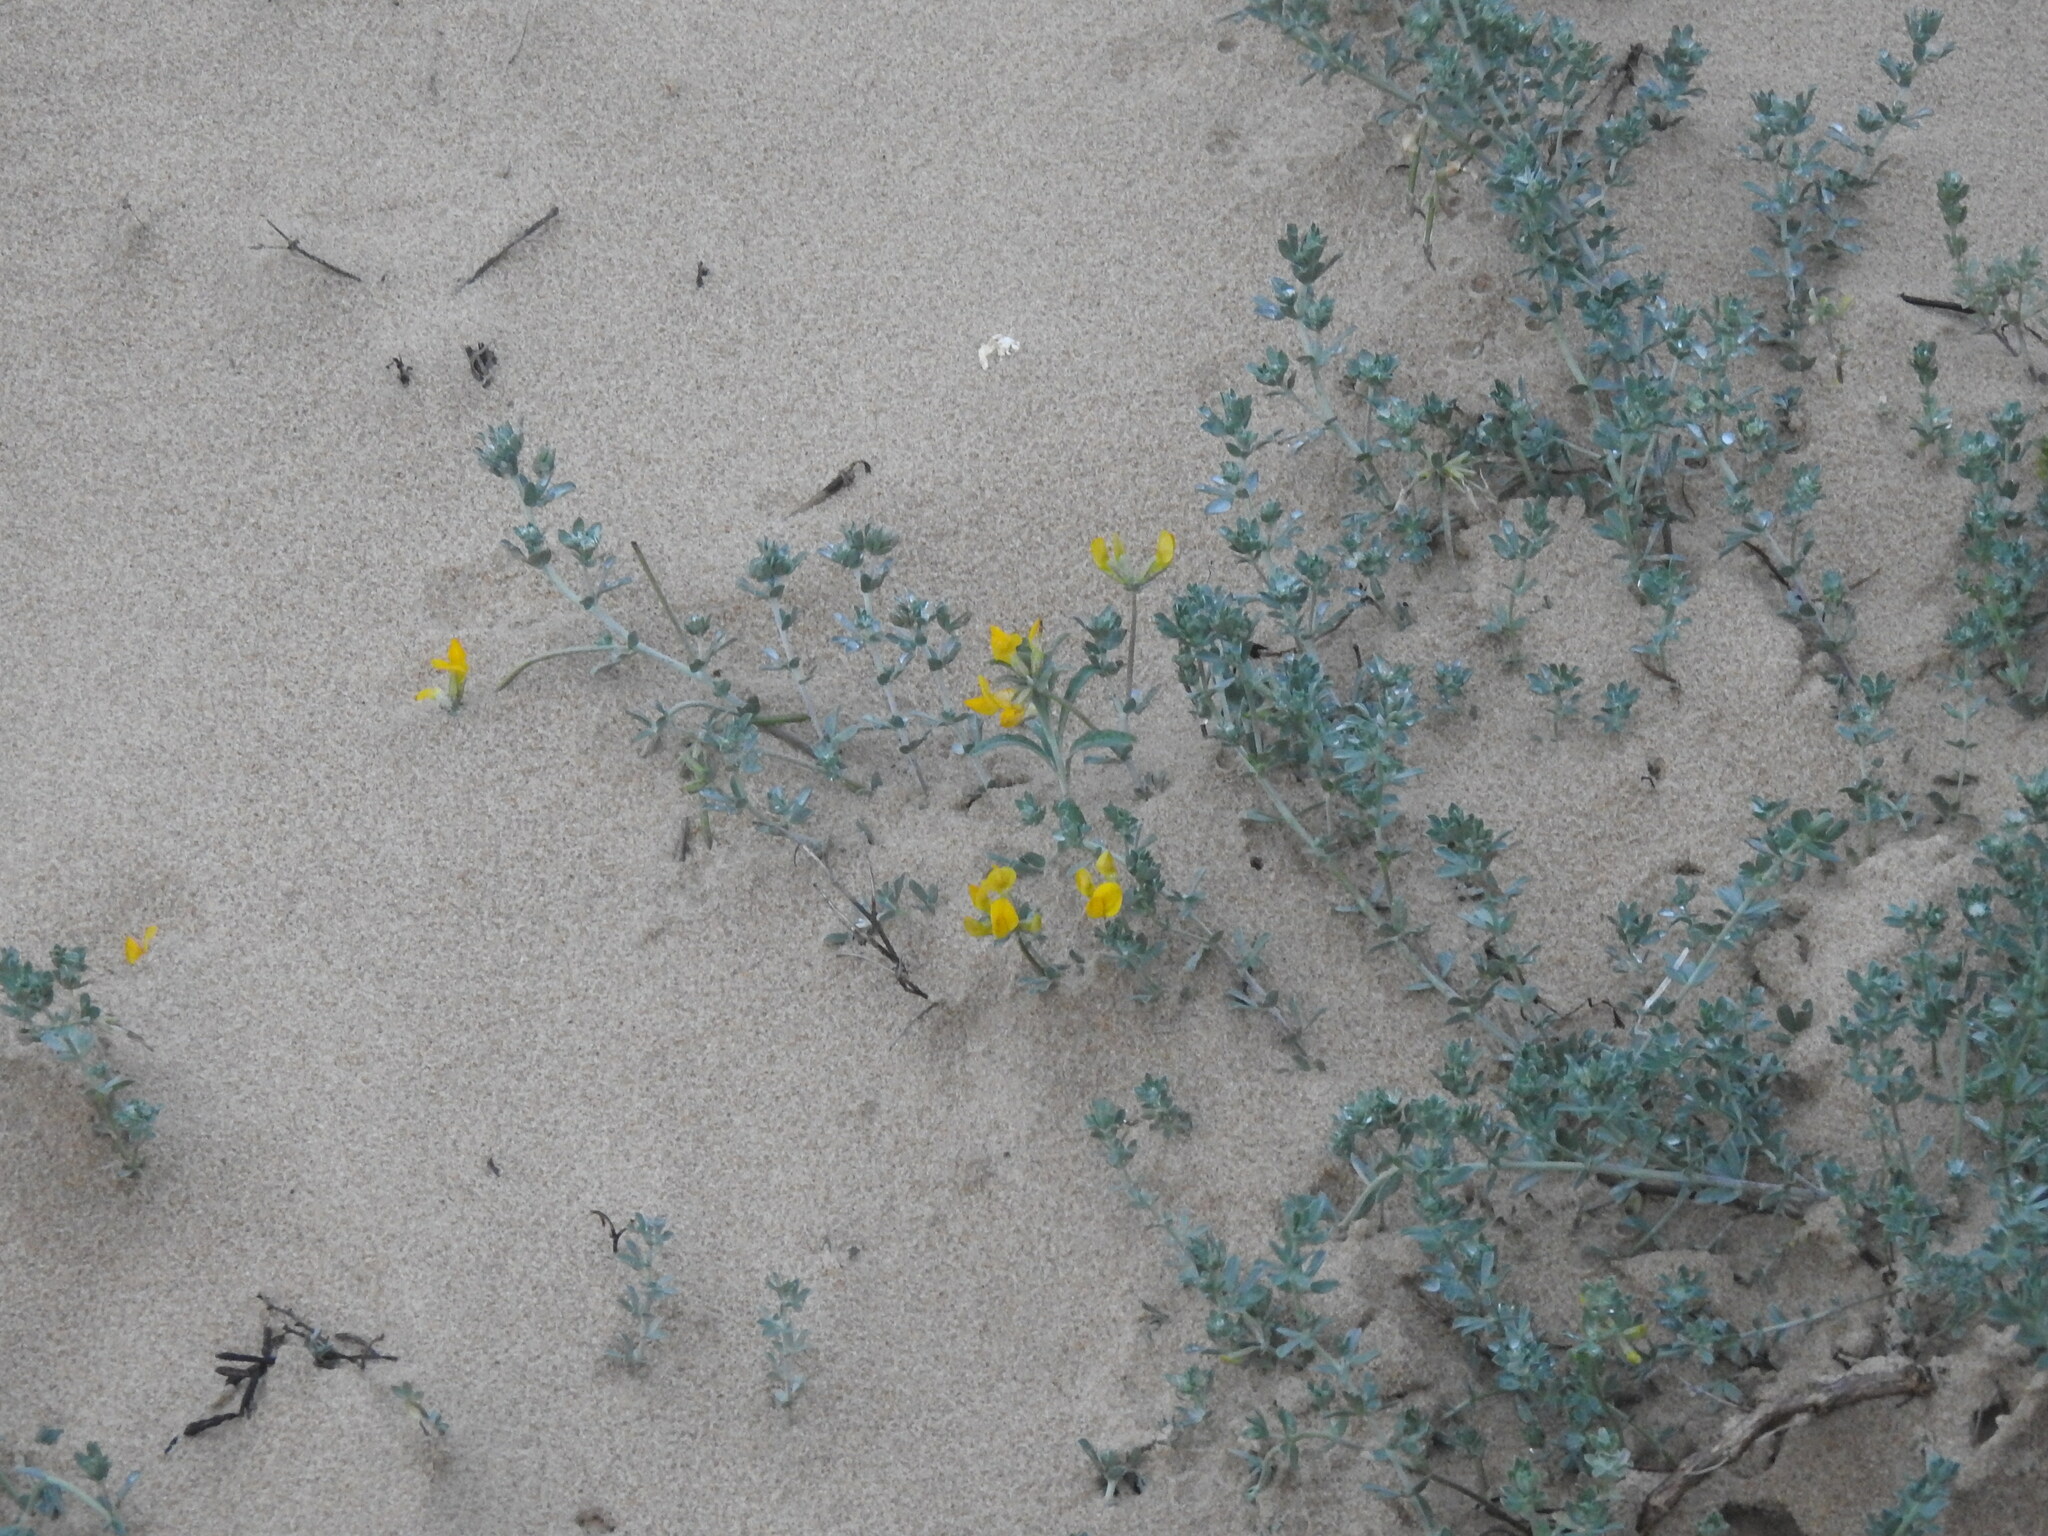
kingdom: Plantae
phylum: Tracheophyta
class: Magnoliopsida
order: Fabales
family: Fabaceae
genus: Lotus
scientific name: Lotus creticus
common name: Cretan bird's-foot trefoil
